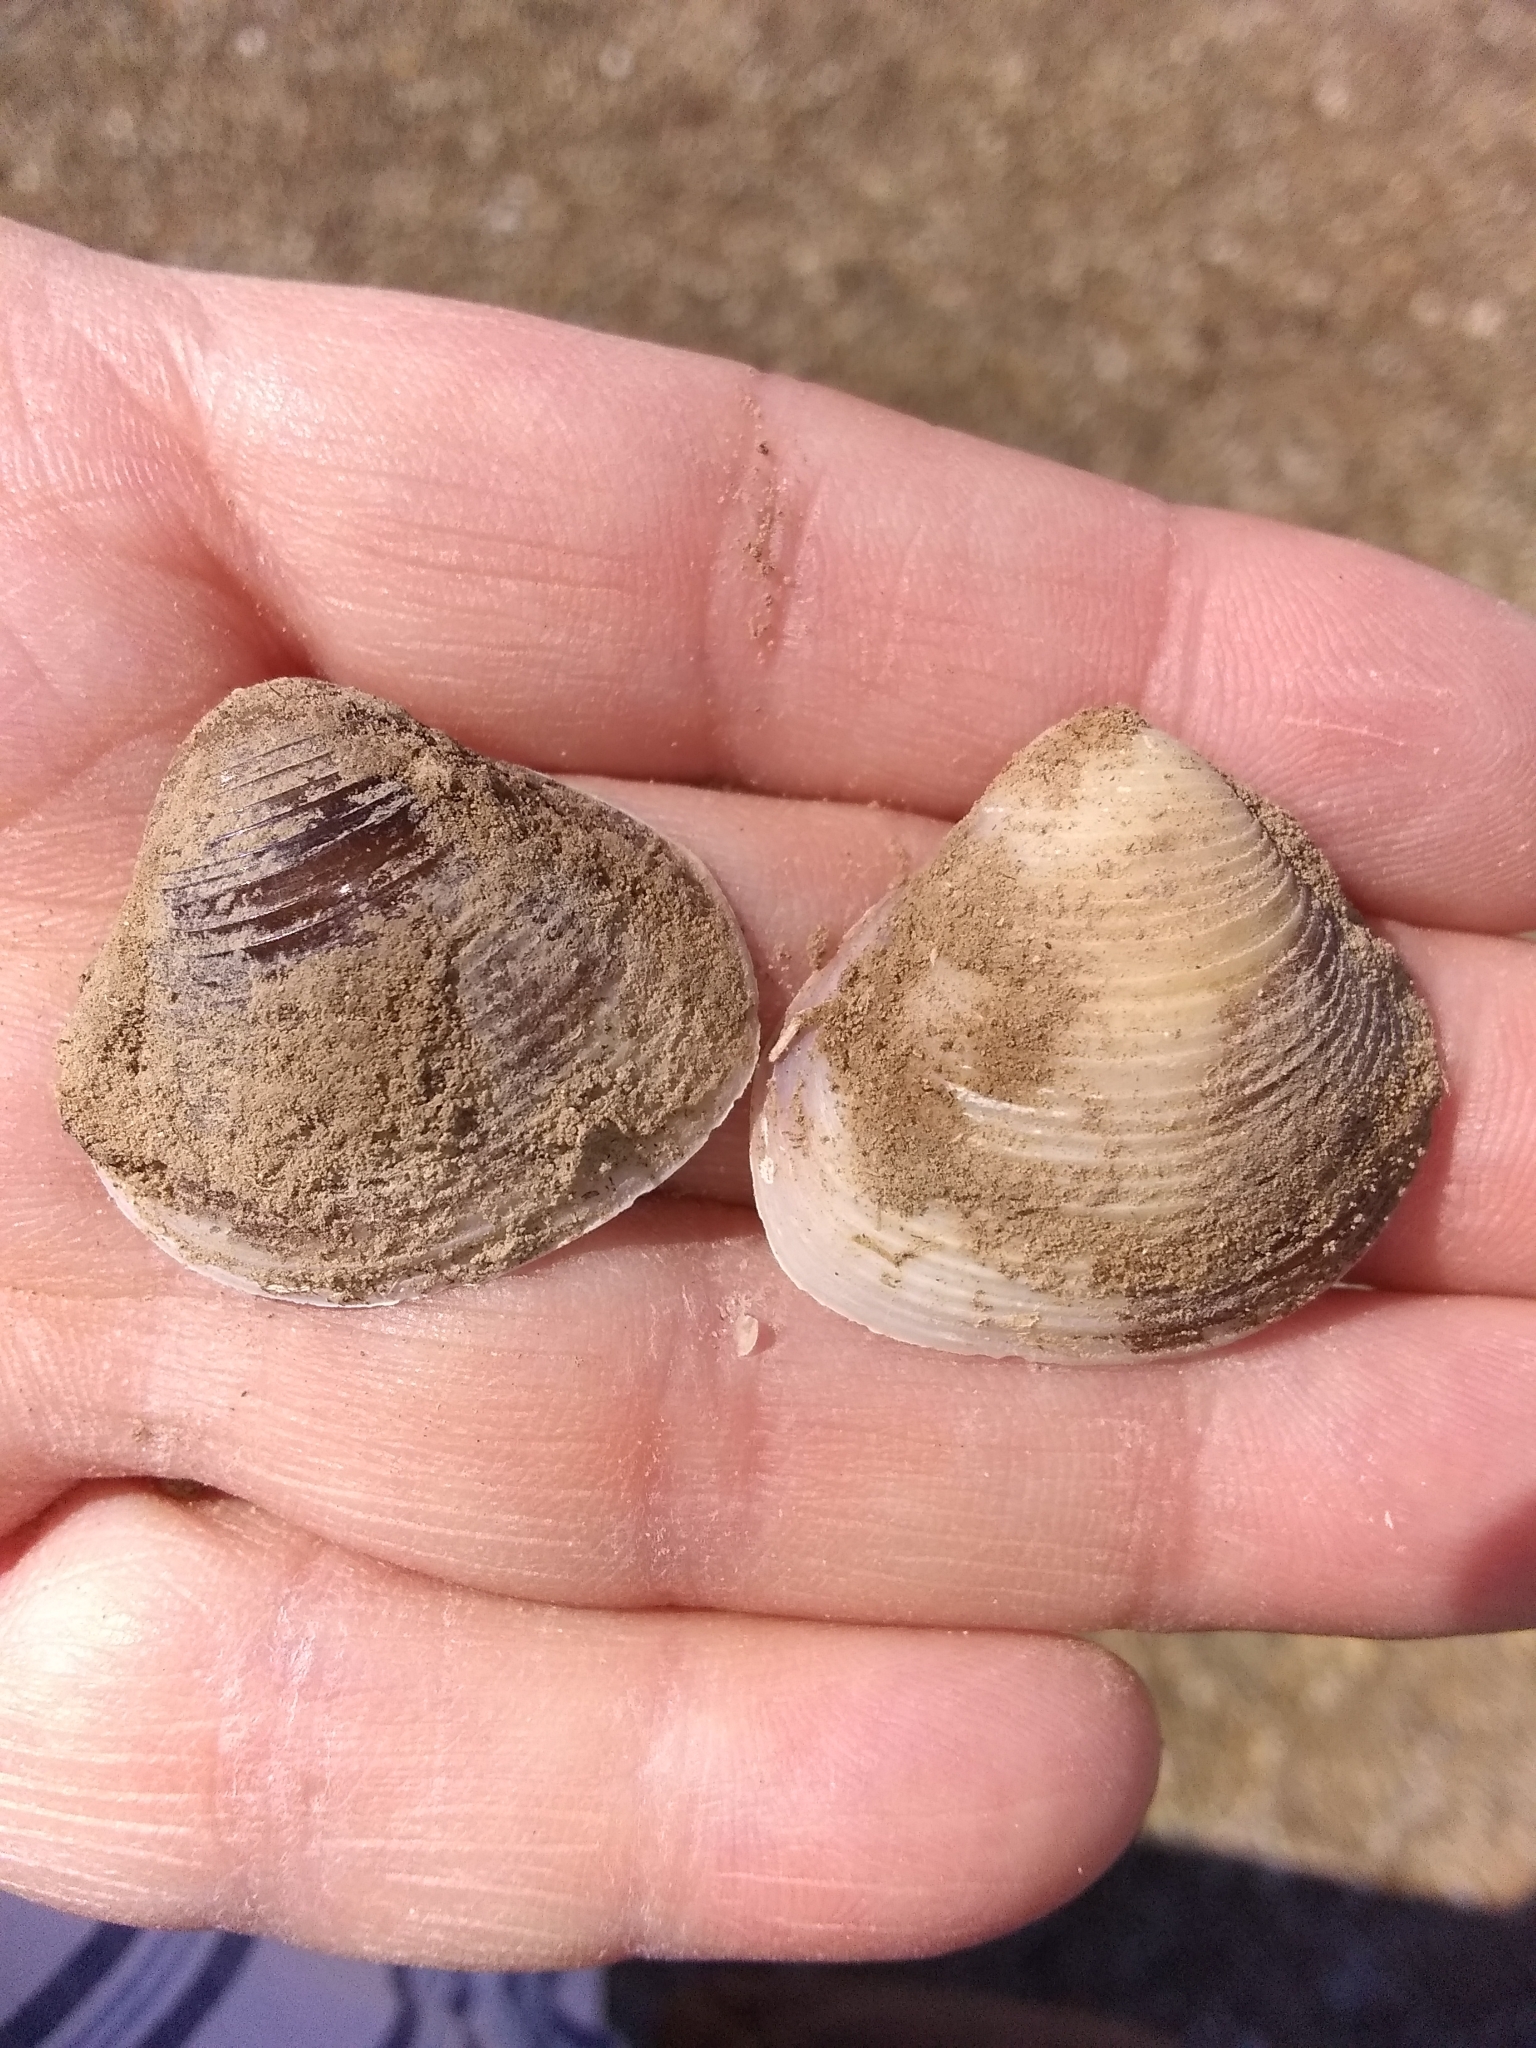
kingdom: Animalia
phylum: Mollusca
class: Bivalvia
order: Venerida
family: Cyrenidae
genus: Corbicula
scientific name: Corbicula fluminea
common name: Asian clam
